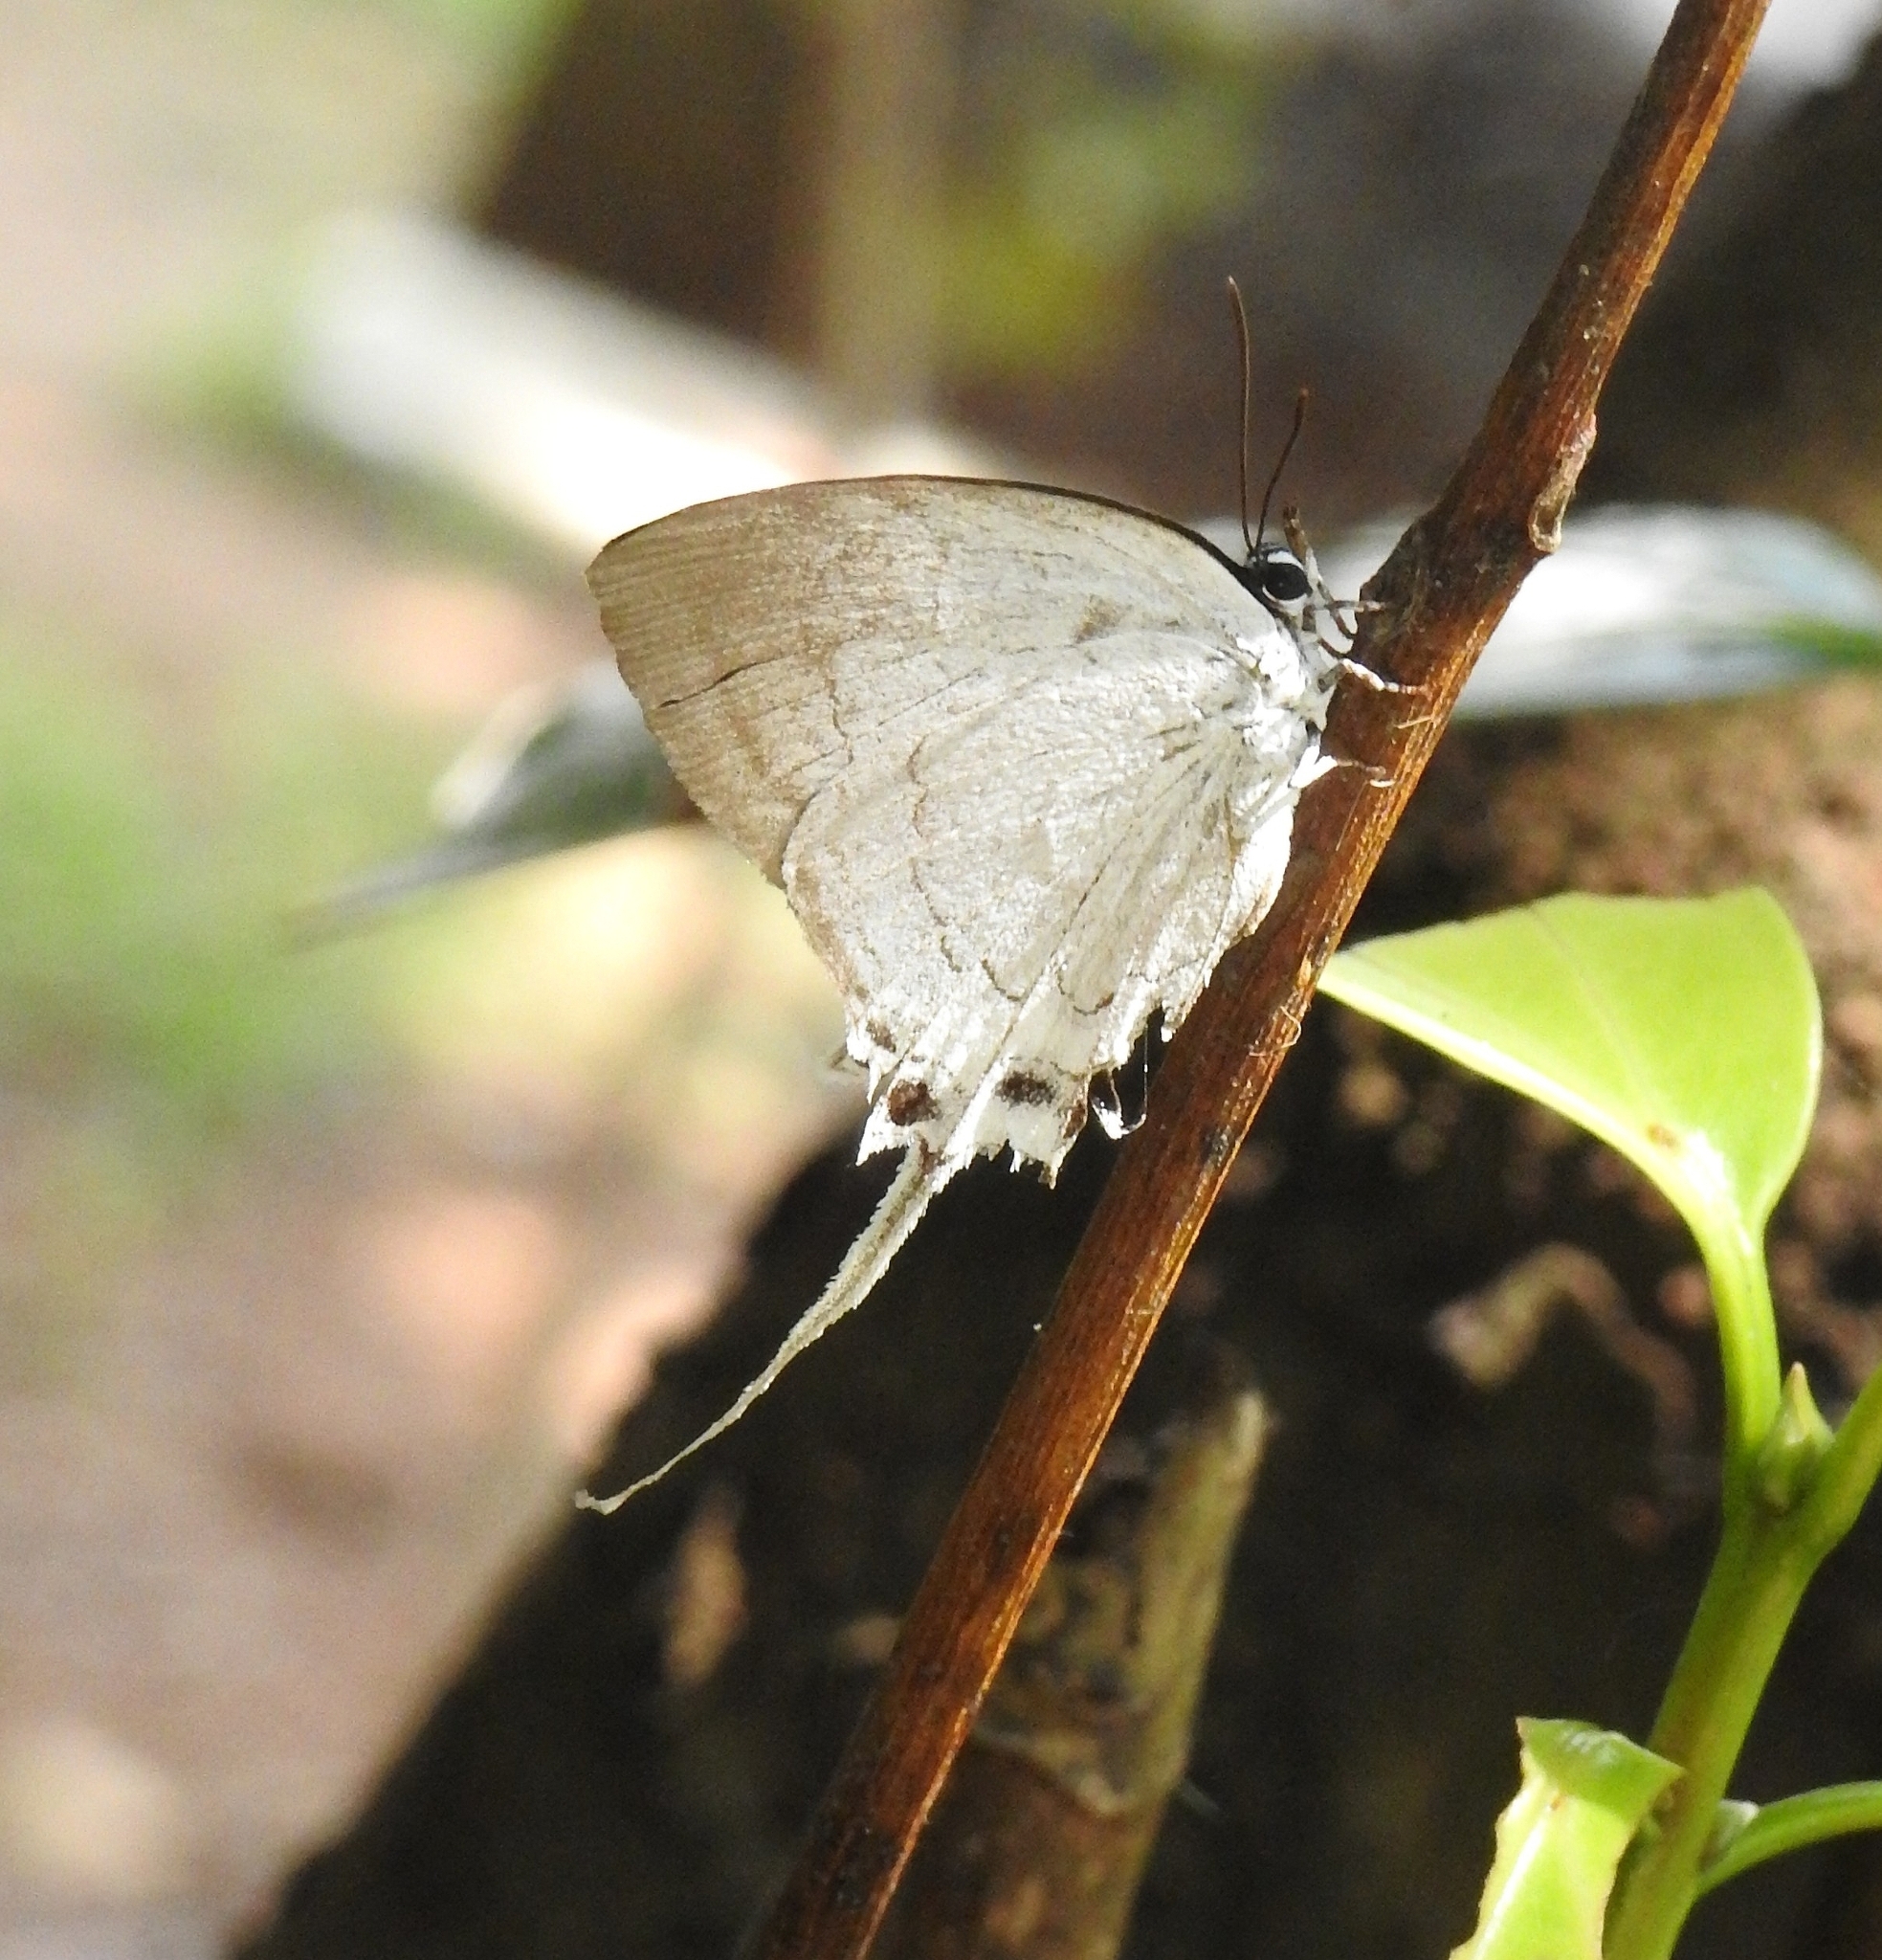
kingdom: Animalia
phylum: Arthropoda
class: Insecta
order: Lepidoptera
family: Lycaenidae
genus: Cheritra
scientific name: Cheritra freja
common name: Common imperial
